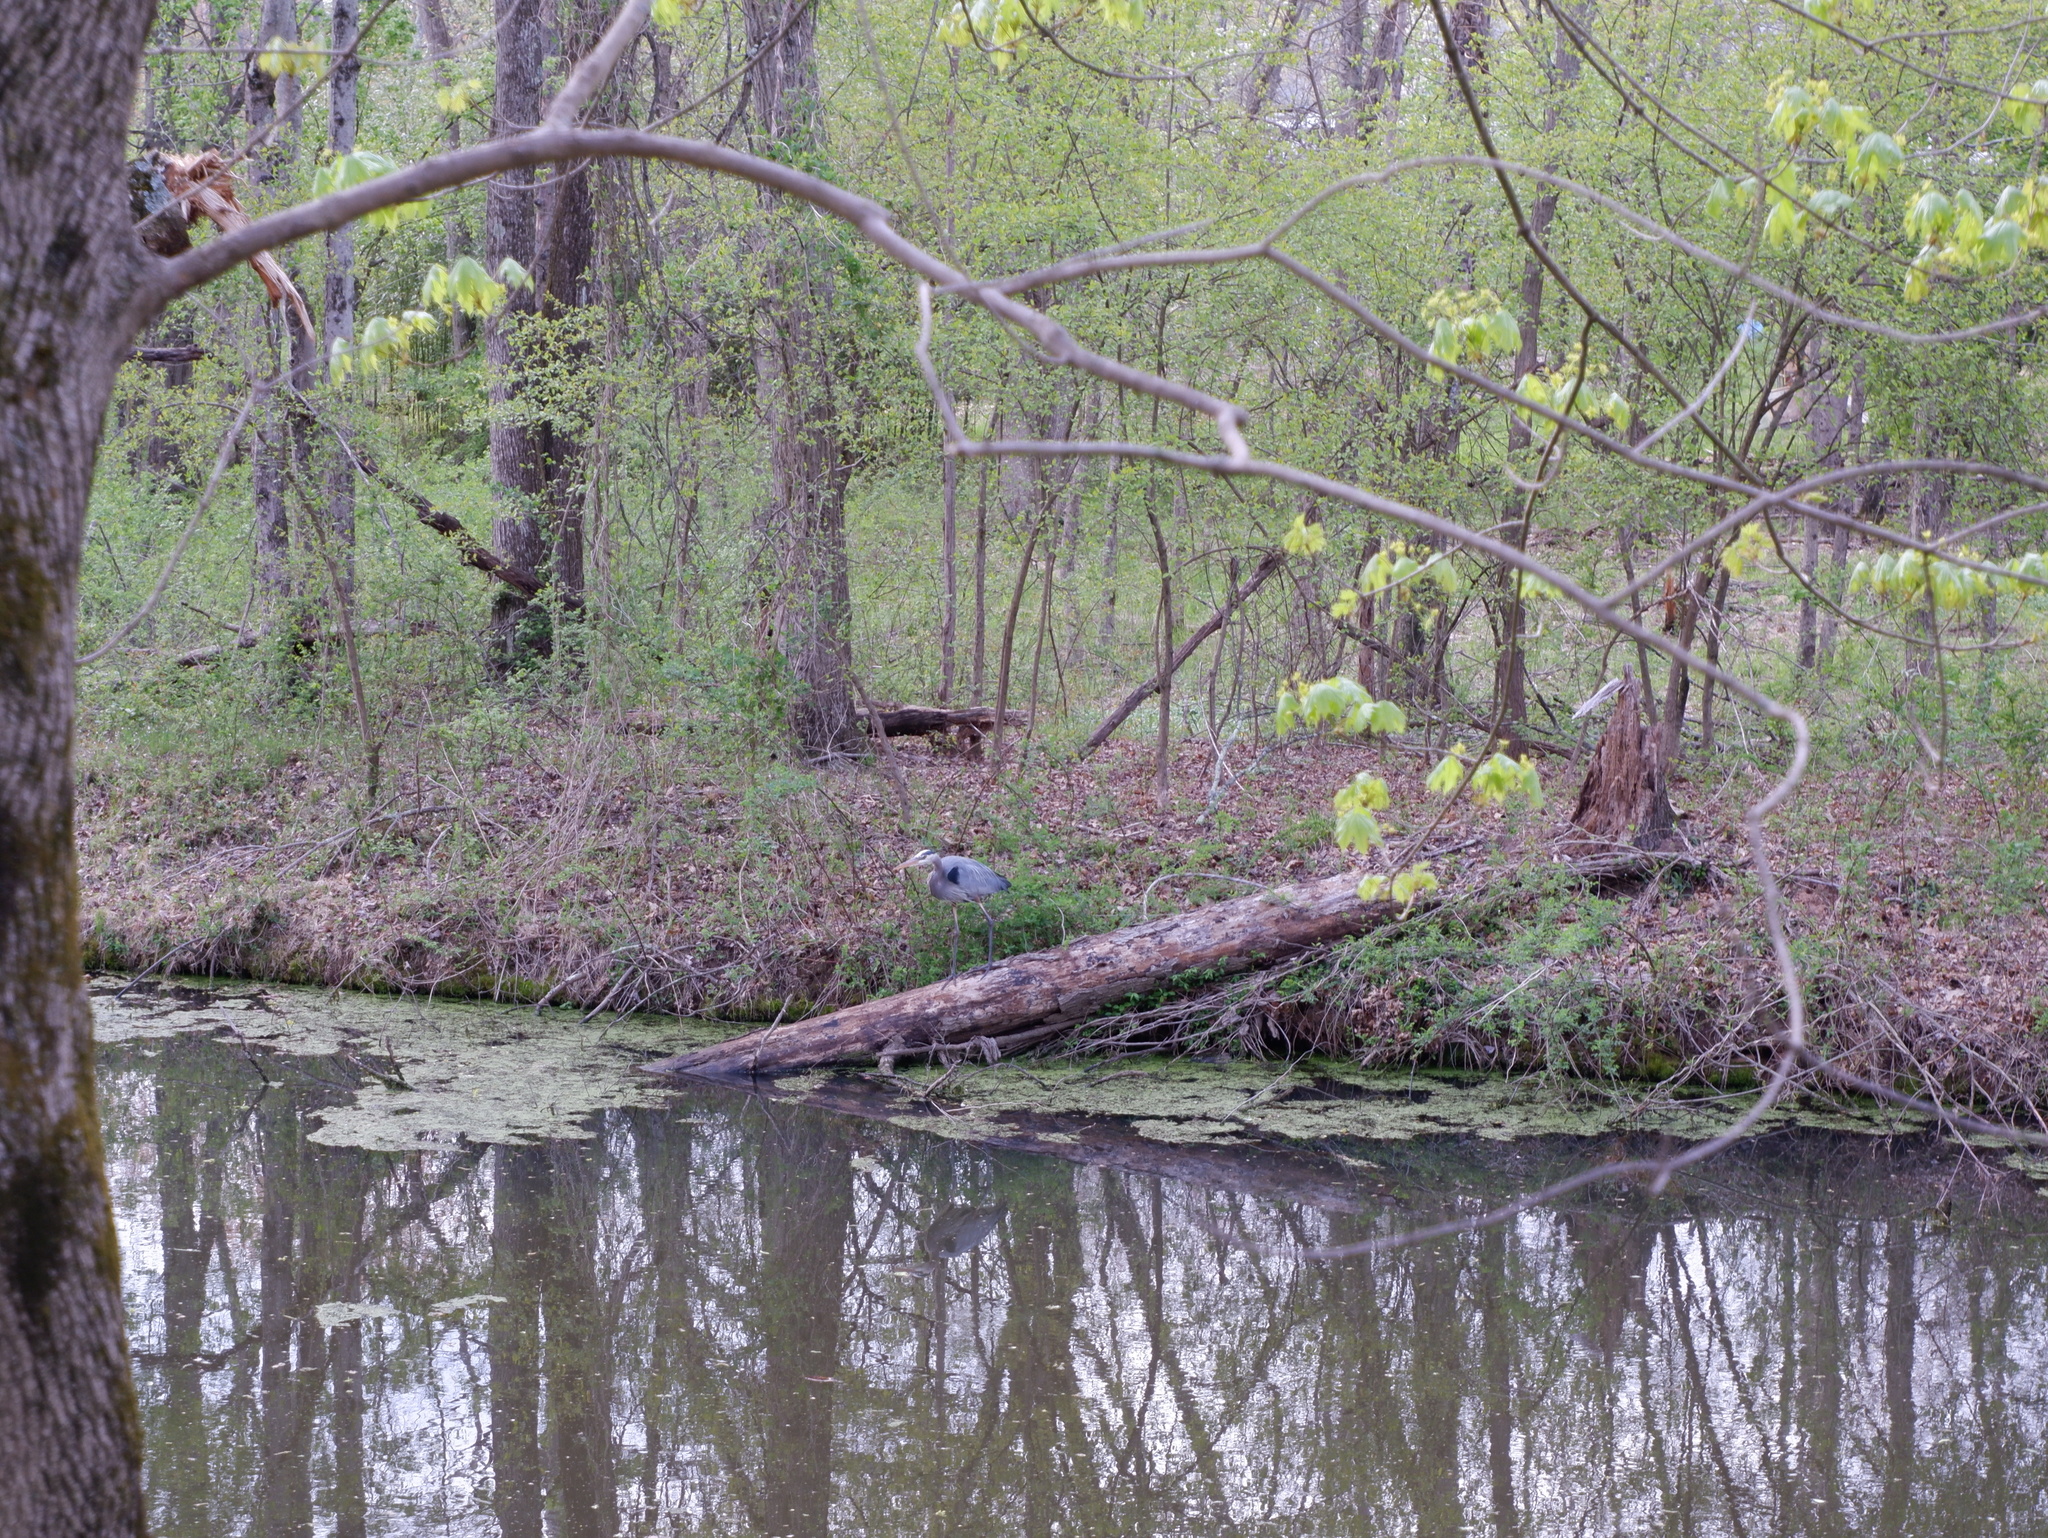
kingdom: Animalia
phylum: Chordata
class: Aves
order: Pelecaniformes
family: Ardeidae
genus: Ardea
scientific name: Ardea herodias
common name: Great blue heron
